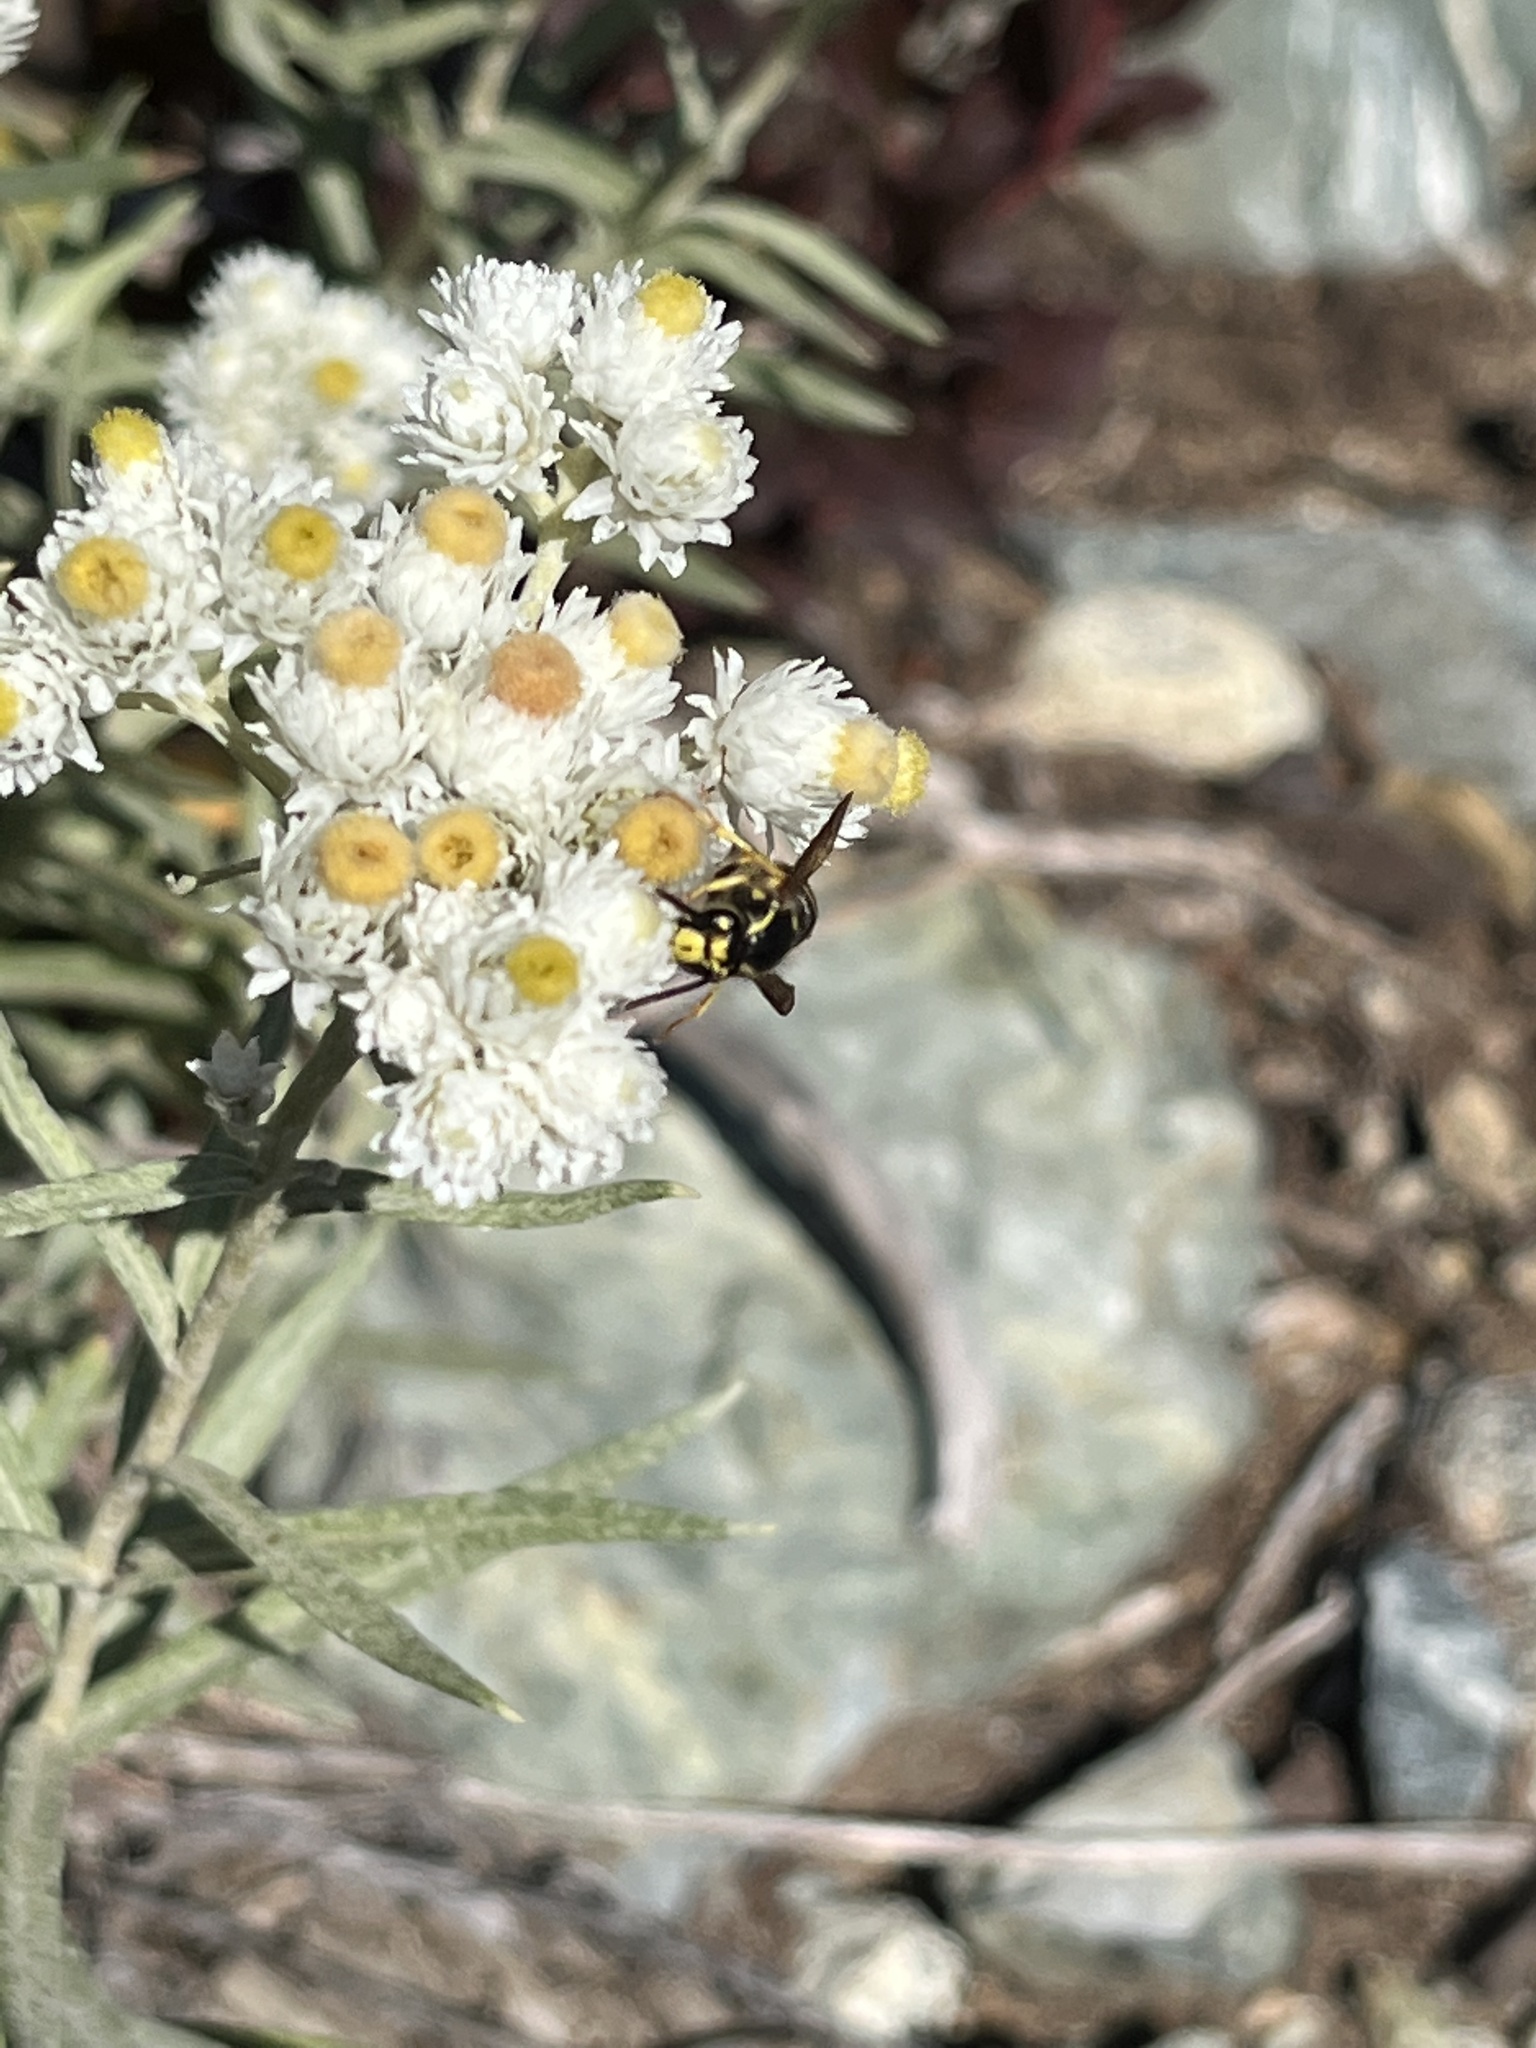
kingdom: Animalia
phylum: Arthropoda
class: Insecta
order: Hymenoptera
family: Vespidae
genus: Dolichovespula
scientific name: Dolichovespula arenaria
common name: Aerial yellowjacket
